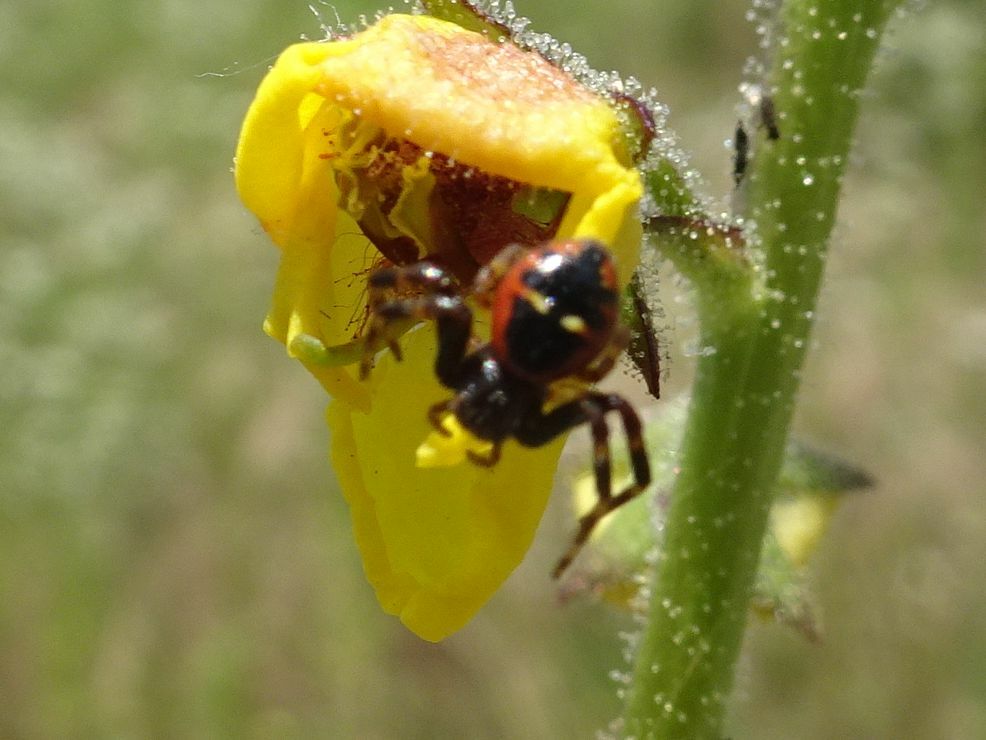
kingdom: Animalia
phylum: Arthropoda
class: Arachnida
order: Araneae
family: Thomisidae
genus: Synema
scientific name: Synema globosum
